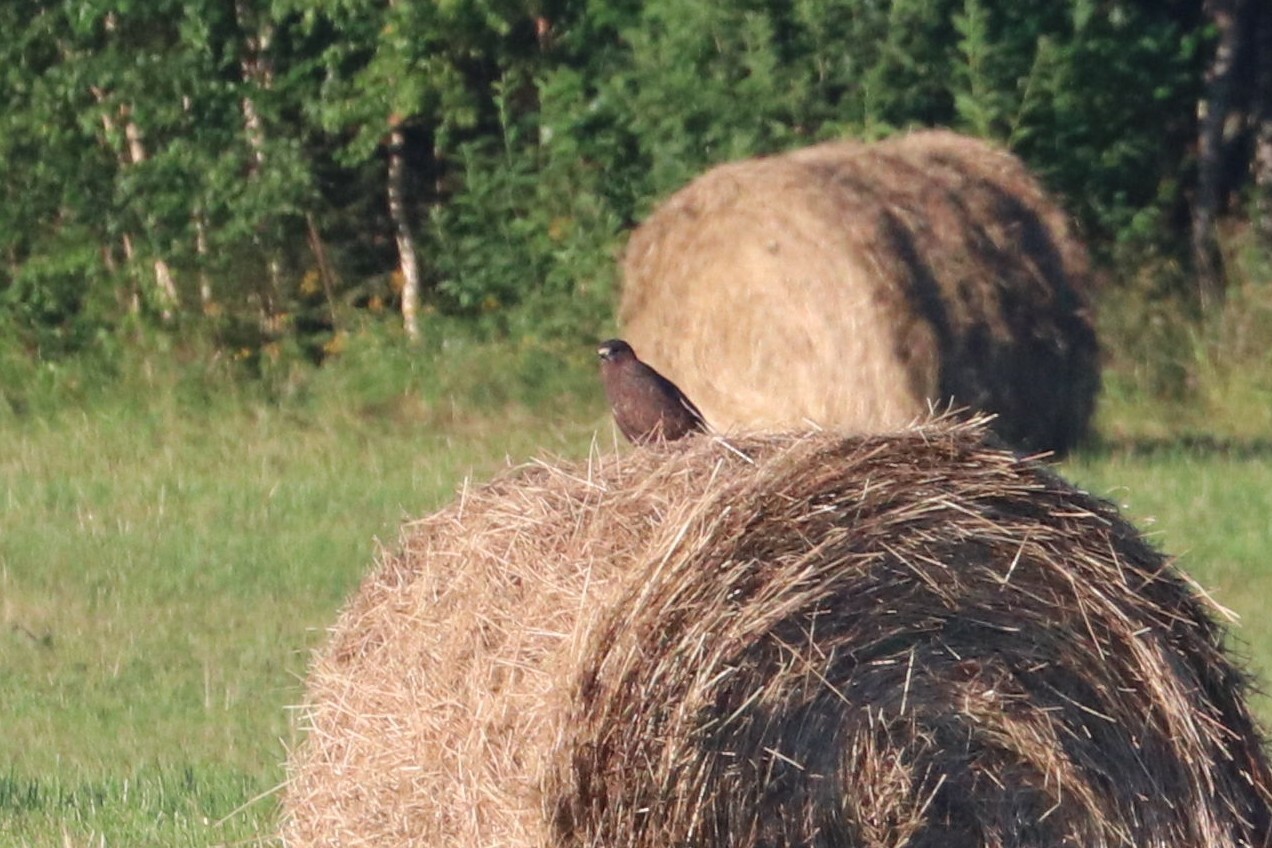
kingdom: Animalia
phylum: Chordata
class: Aves
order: Accipitriformes
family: Accipitridae
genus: Buteo
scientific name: Buteo buteo
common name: Common buzzard
